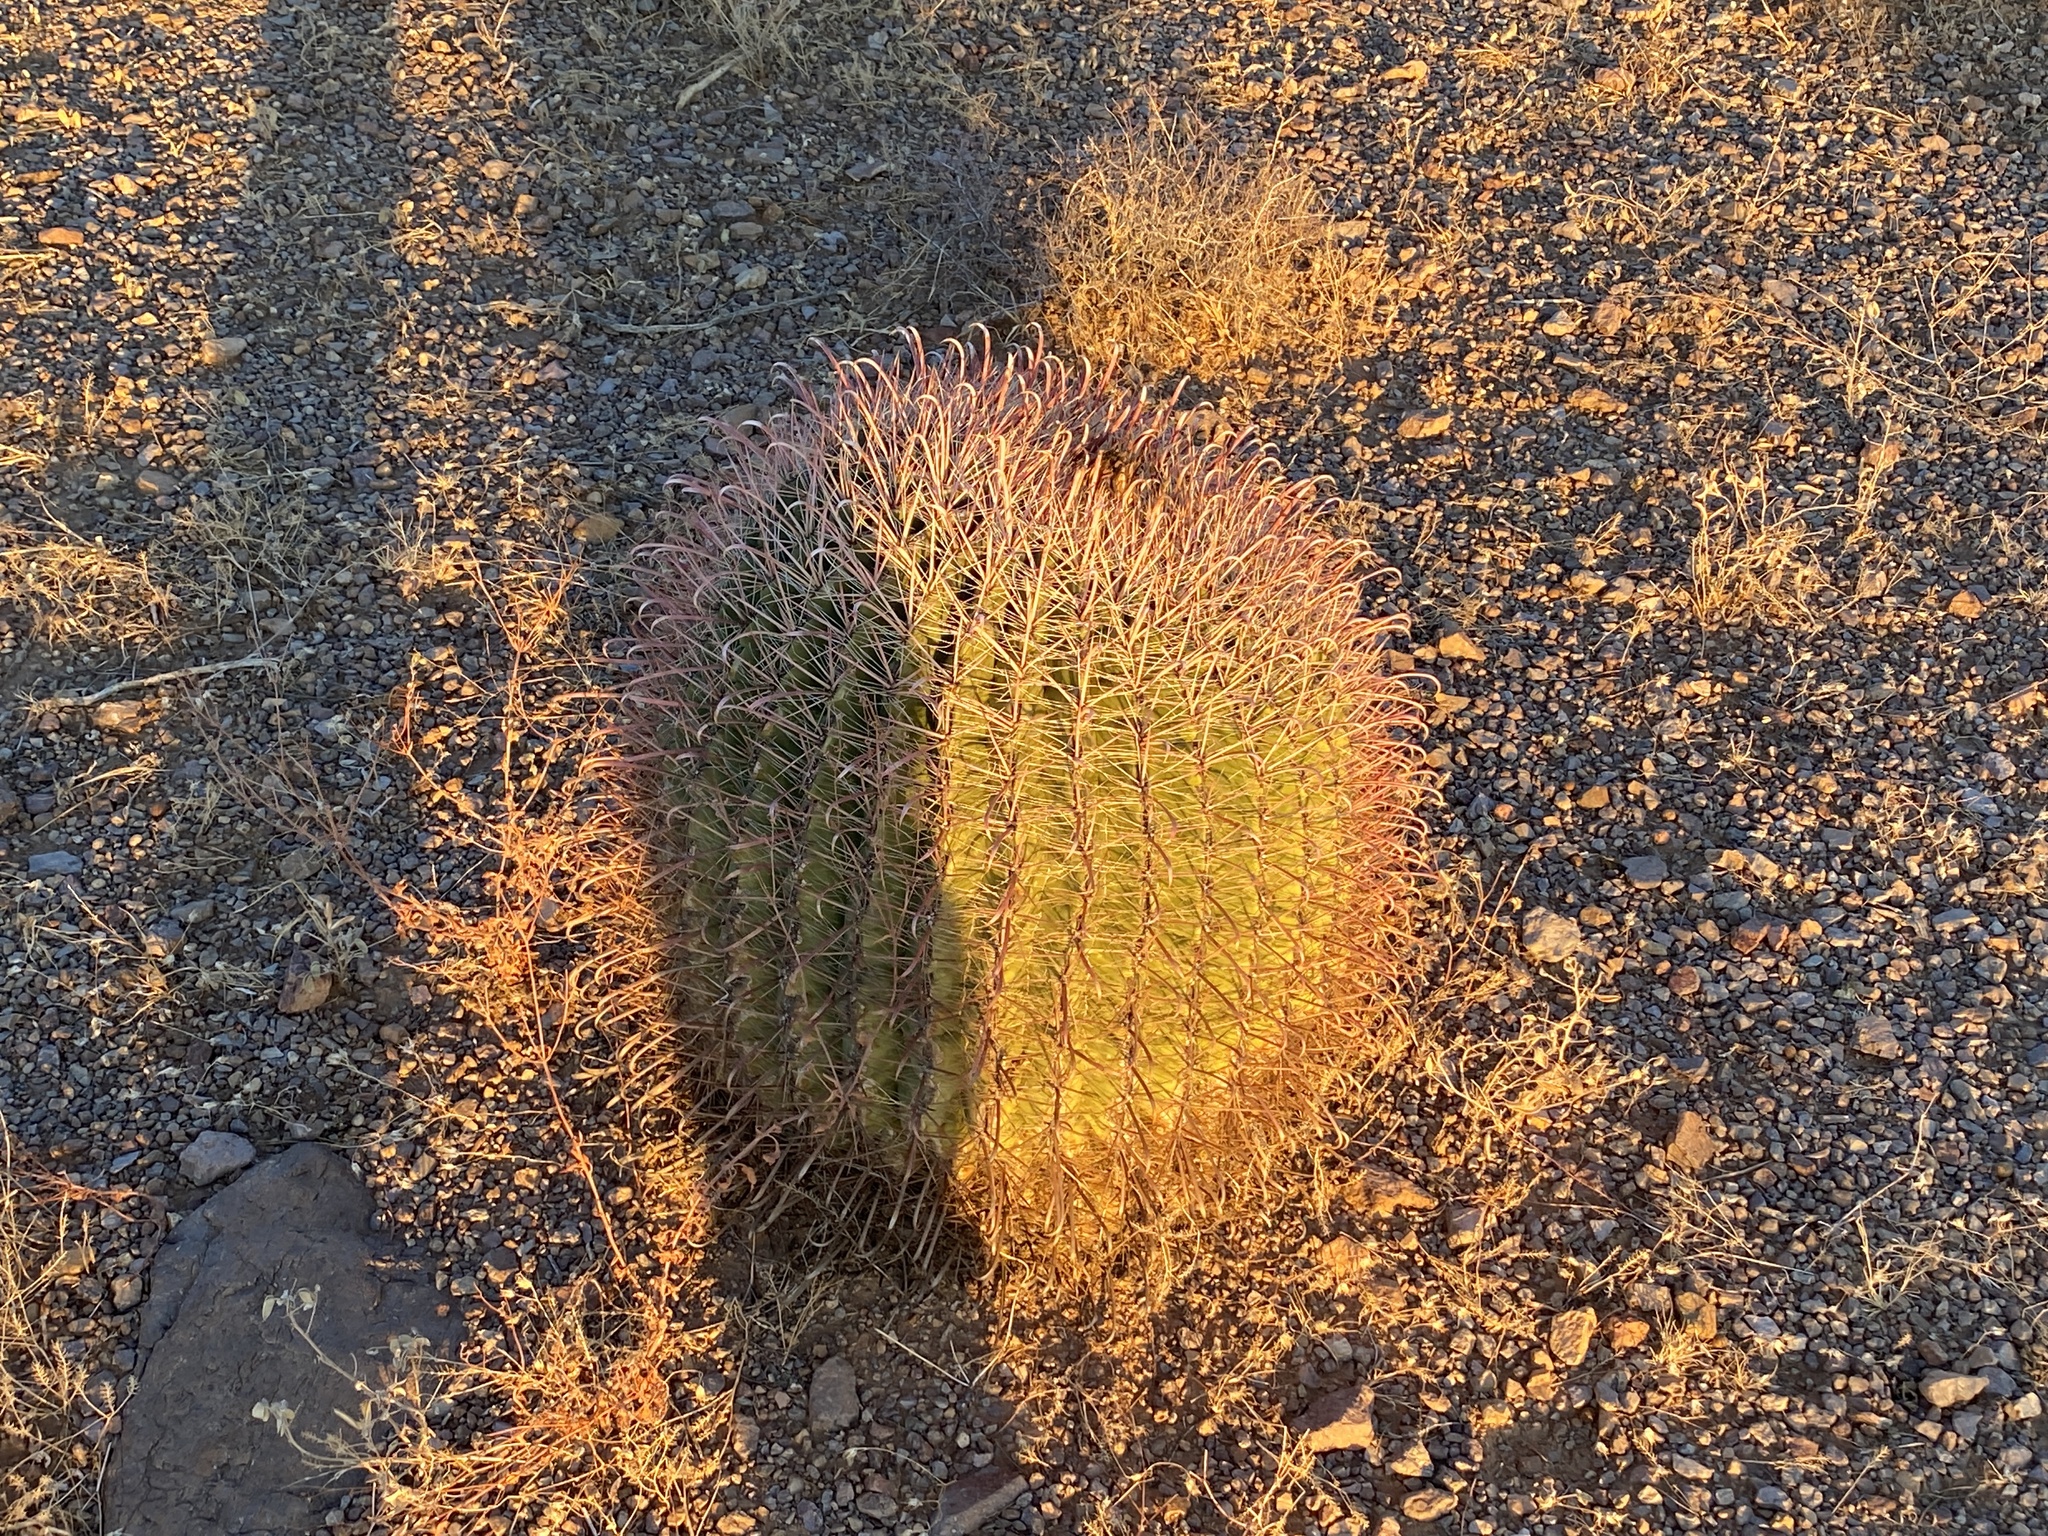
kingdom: Plantae
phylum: Tracheophyta
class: Magnoliopsida
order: Caryophyllales
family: Cactaceae
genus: Ferocactus
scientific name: Ferocactus wislizeni
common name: Candy barrel cactus
